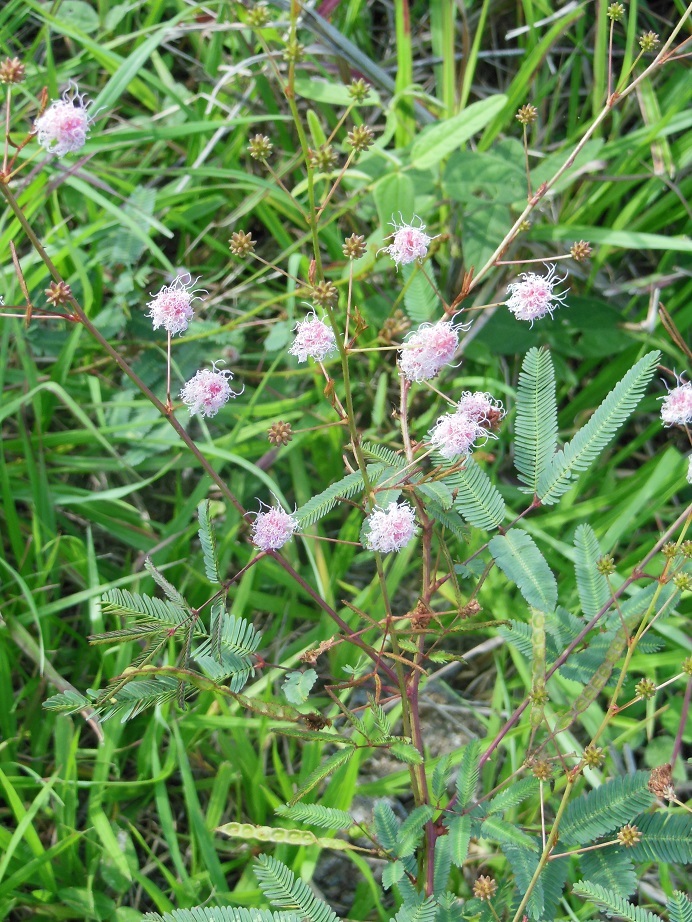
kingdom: Plantae
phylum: Tracheophyta
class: Magnoliopsida
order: Fabales
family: Fabaceae
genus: Mimosa
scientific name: Mimosa pudica
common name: Sensitive plant
